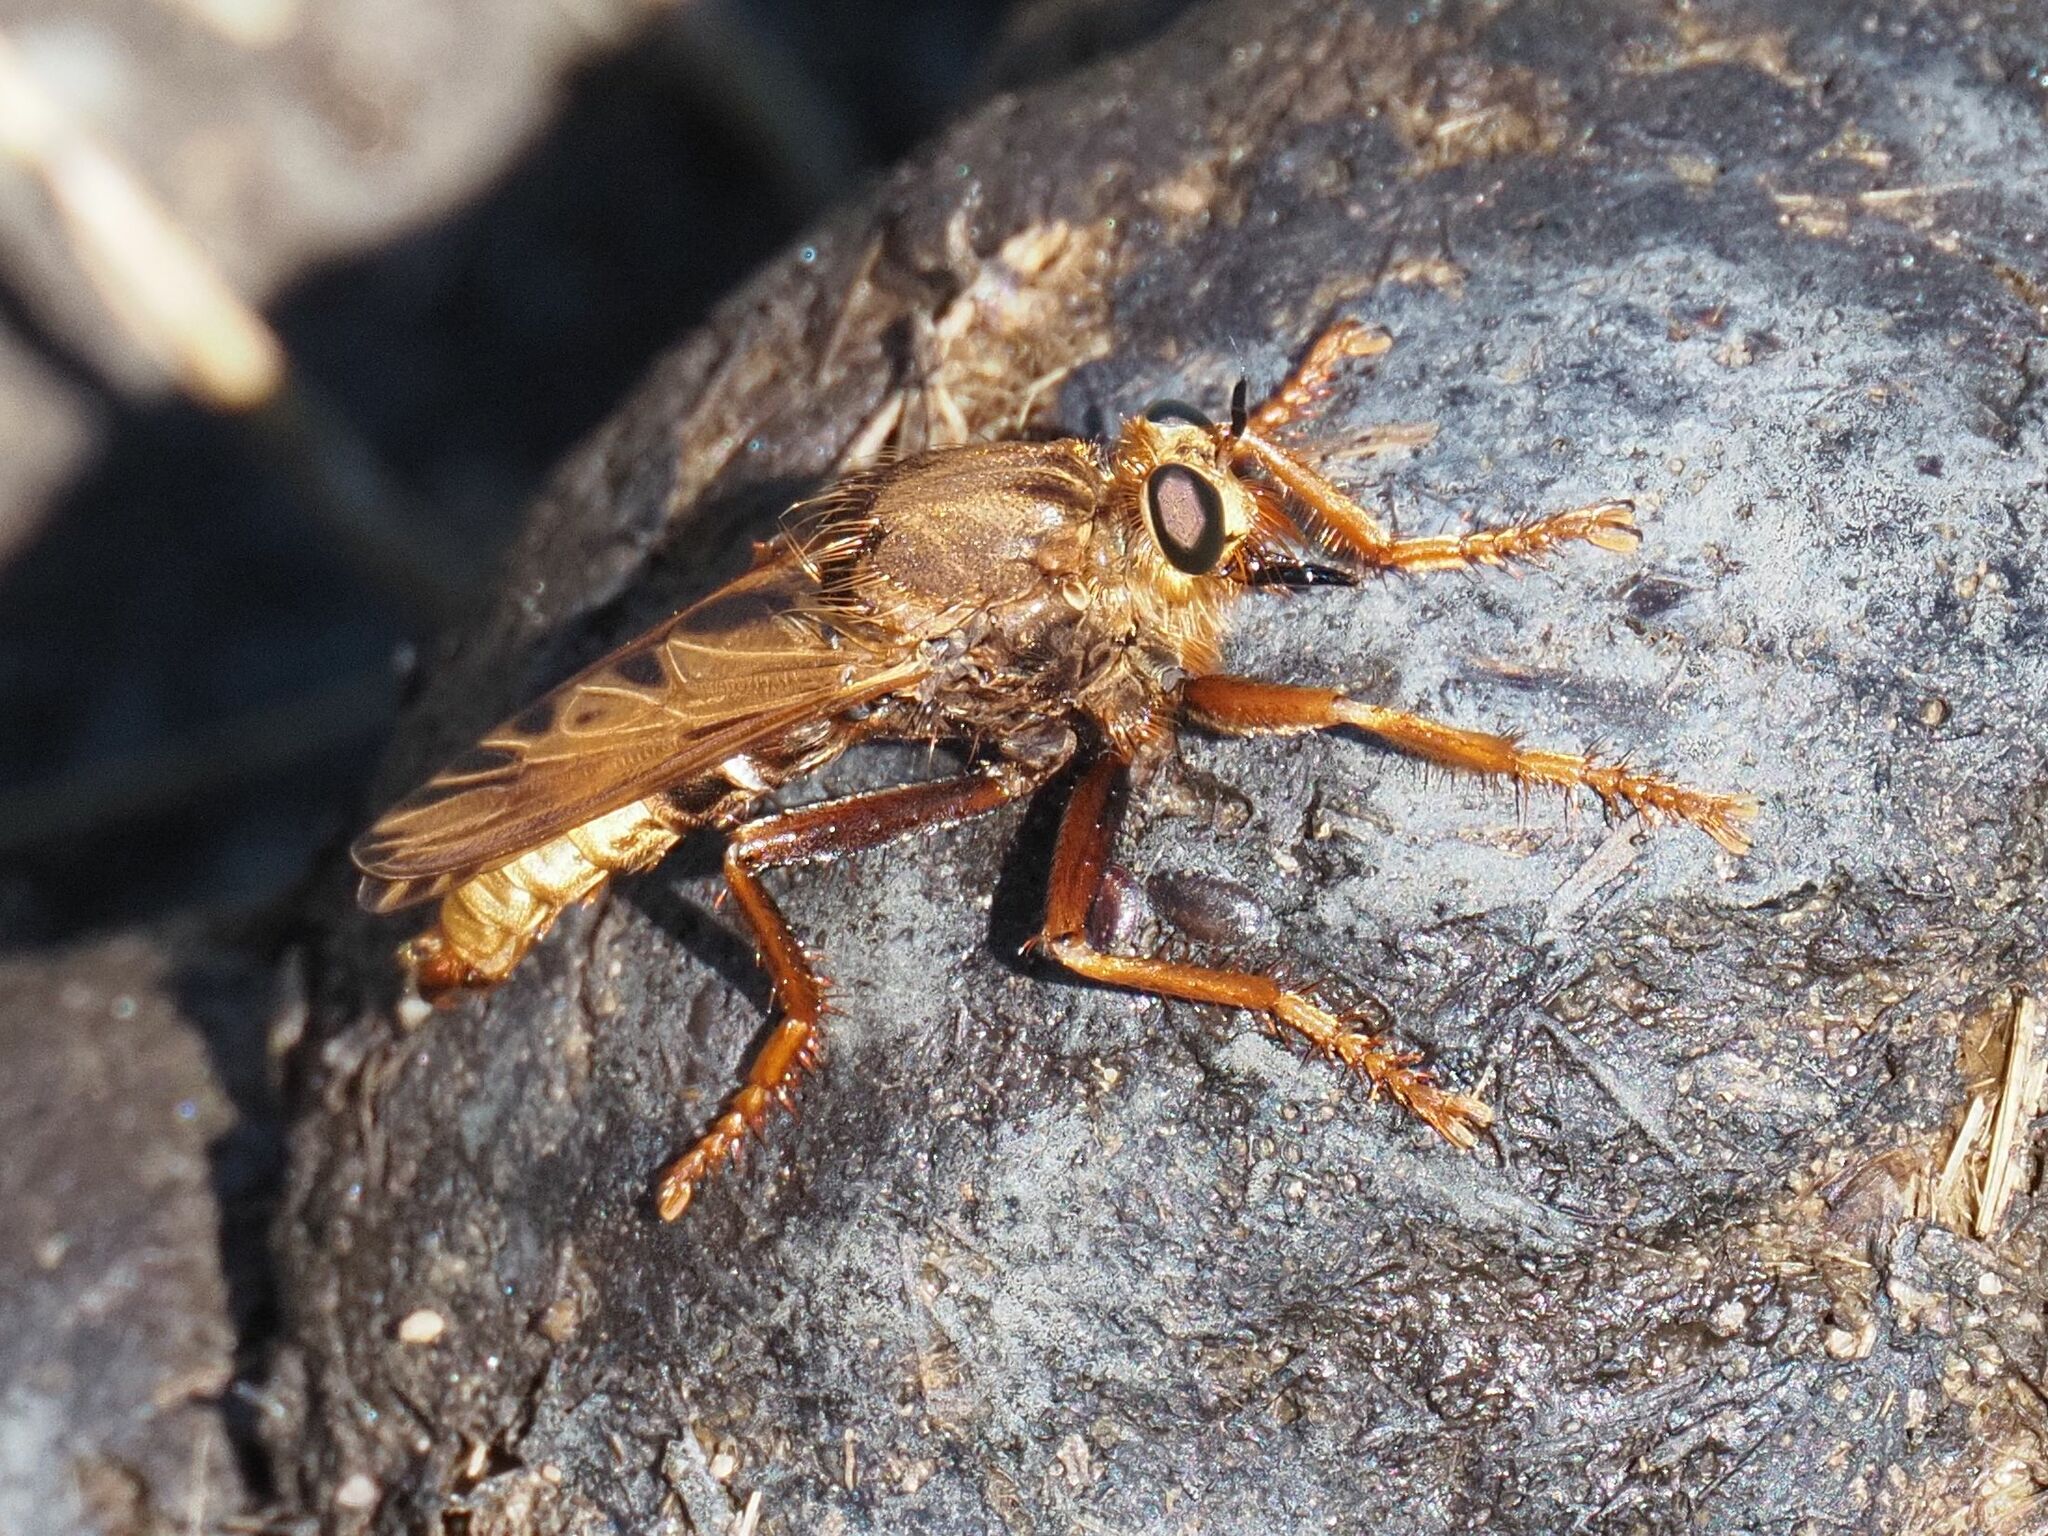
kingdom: Animalia
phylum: Arthropoda
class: Insecta
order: Diptera
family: Asilidae
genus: Asilus
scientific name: Asilus crabroniformis
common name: Hornet robberfly
